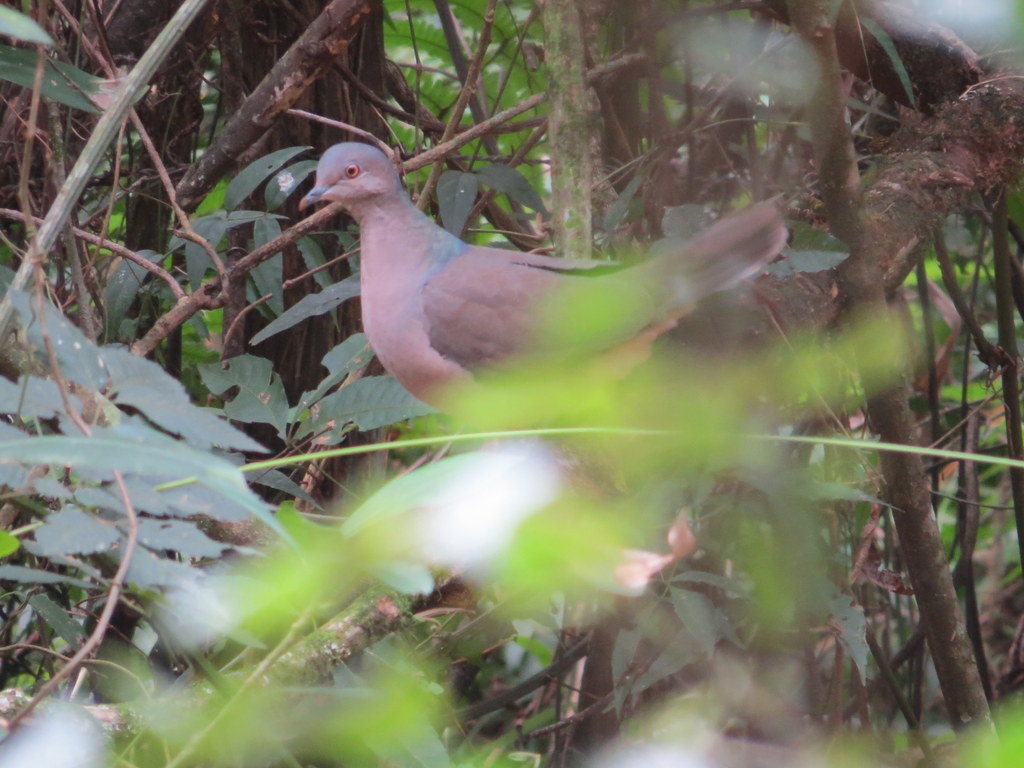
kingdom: Animalia
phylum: Chordata
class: Aves
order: Columbiformes
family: Columbidae
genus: Leptotila
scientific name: Leptotila rufaxilla
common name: Grey-fronted dove
